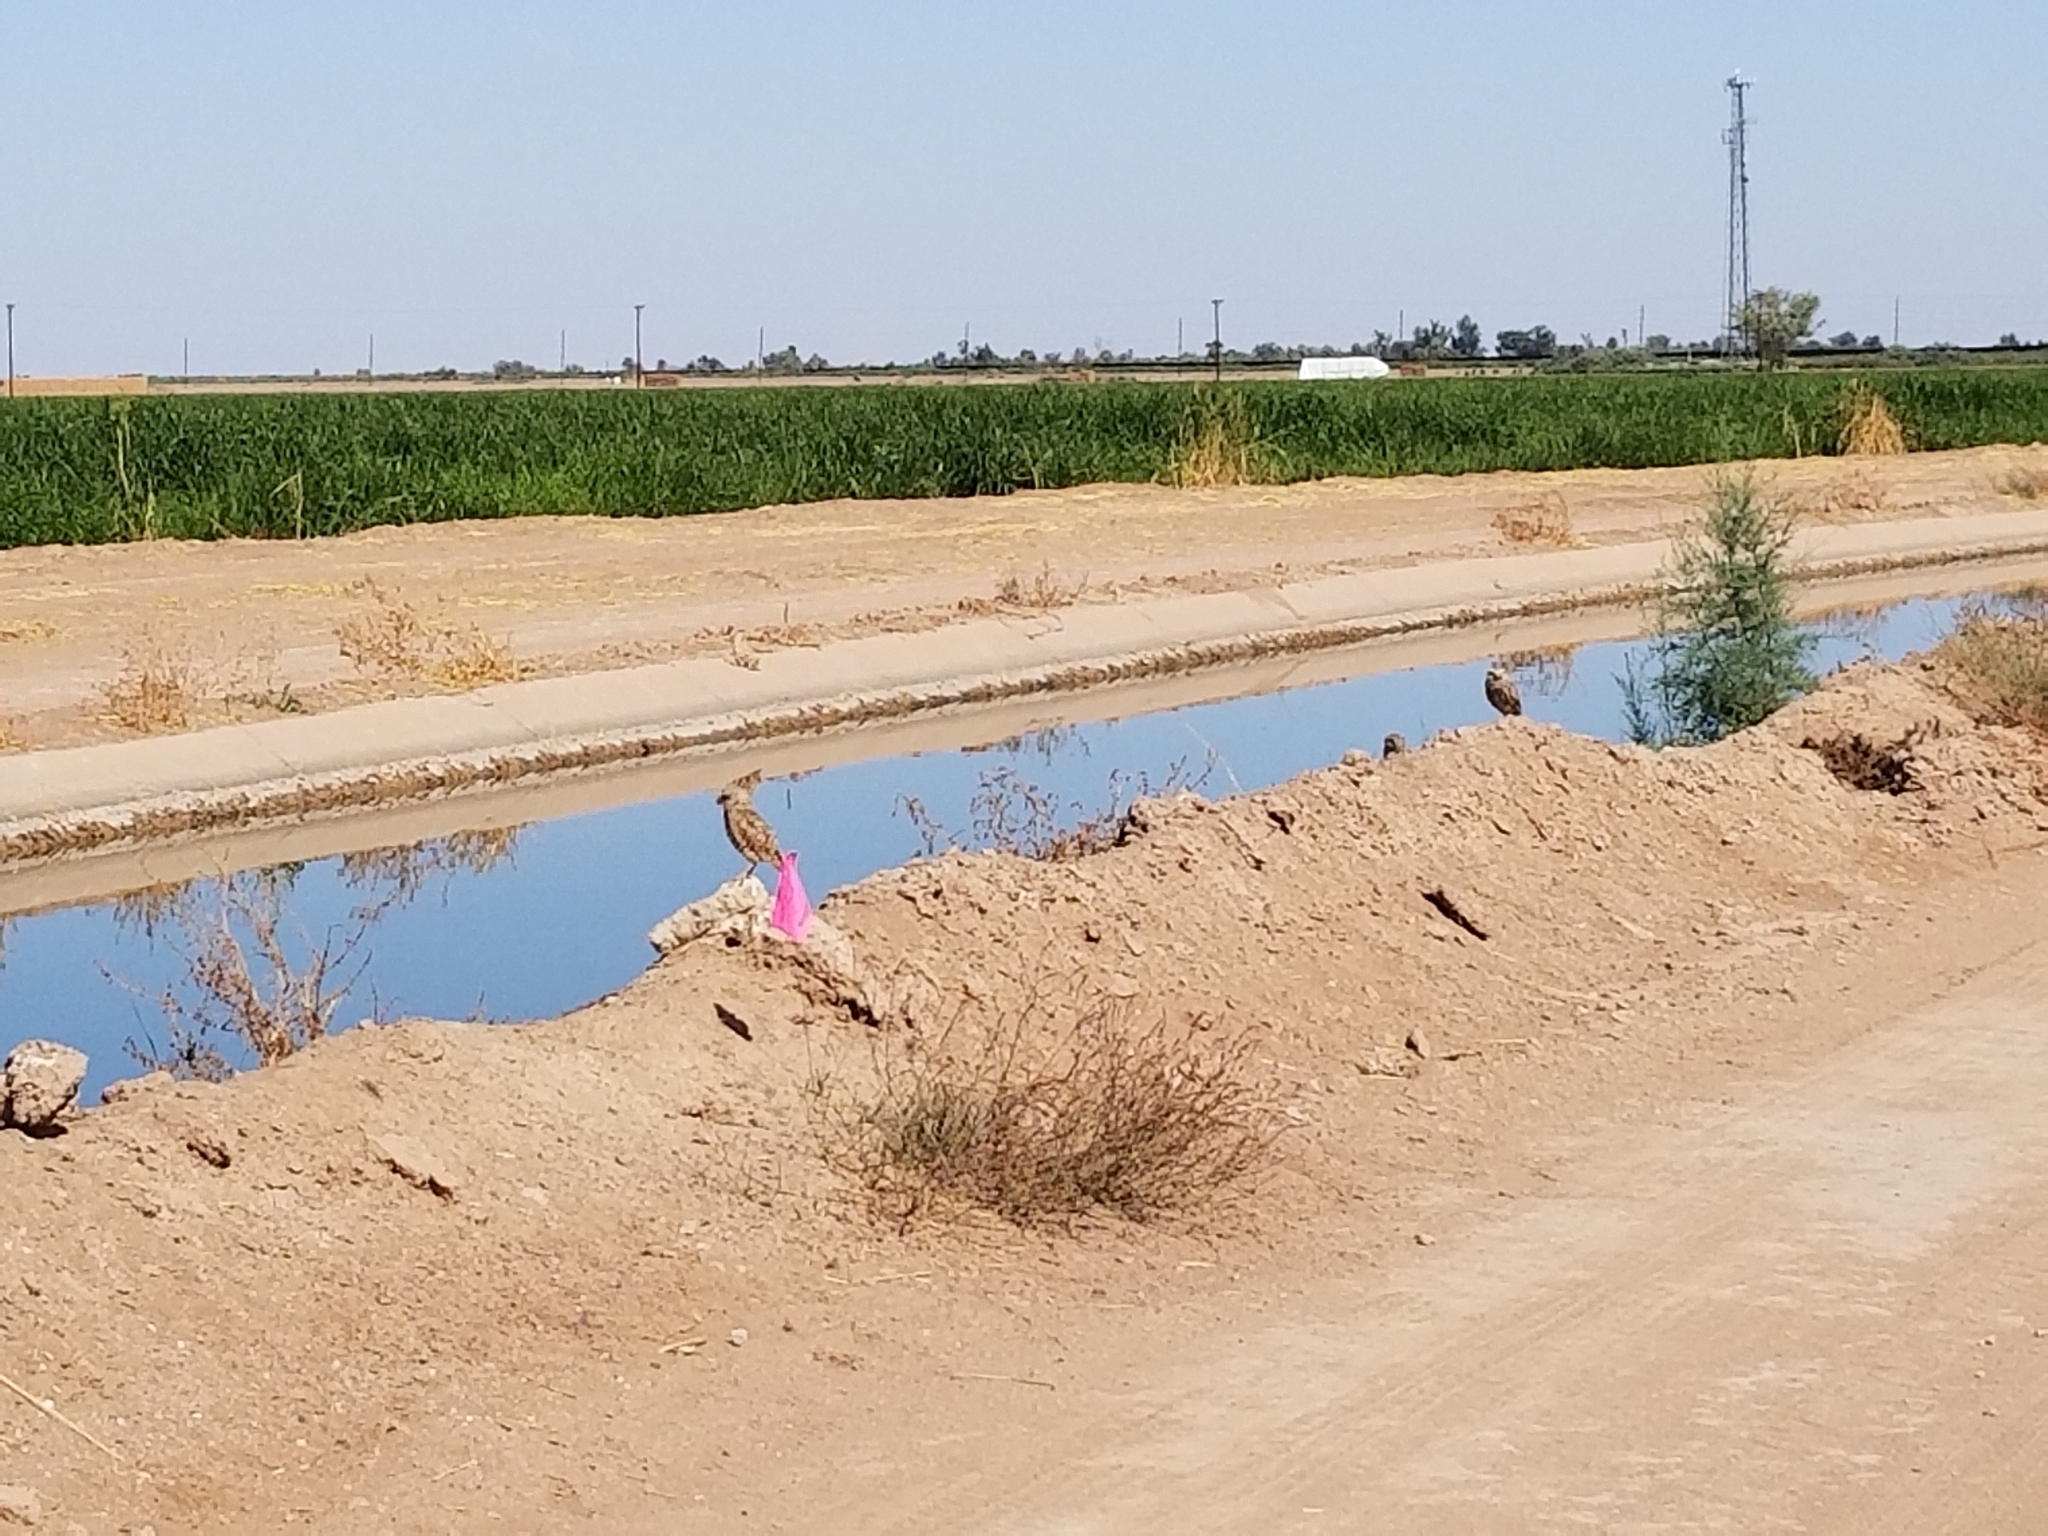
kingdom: Animalia
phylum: Chordata
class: Aves
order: Strigiformes
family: Strigidae
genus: Athene
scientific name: Athene cunicularia
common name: Burrowing owl
